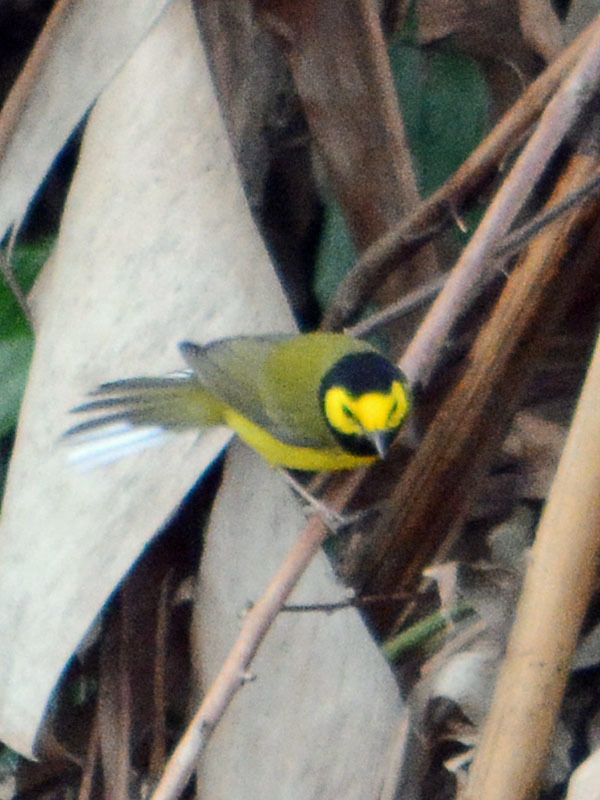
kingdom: Animalia
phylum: Chordata
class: Aves
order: Passeriformes
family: Parulidae
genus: Setophaga
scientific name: Setophaga citrina
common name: Hooded warbler
